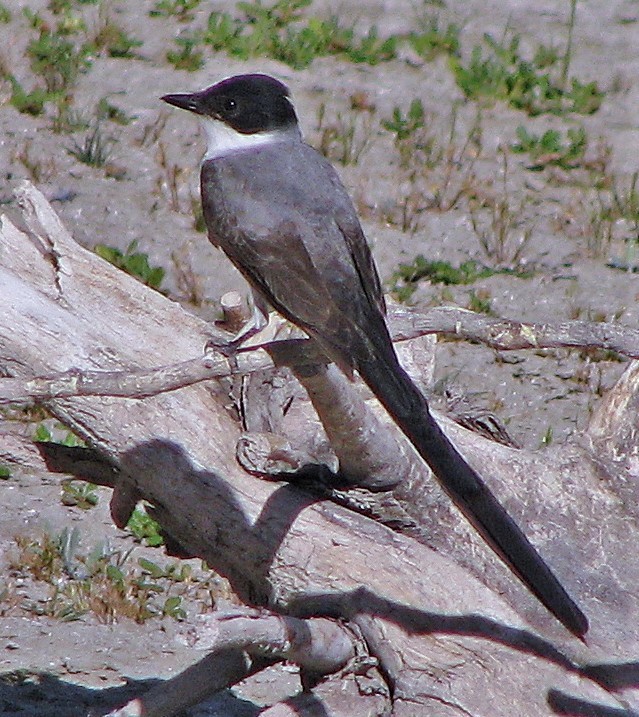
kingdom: Animalia
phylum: Chordata
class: Aves
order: Passeriformes
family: Tyrannidae
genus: Tyrannus
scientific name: Tyrannus savana
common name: Fork-tailed flycatcher
